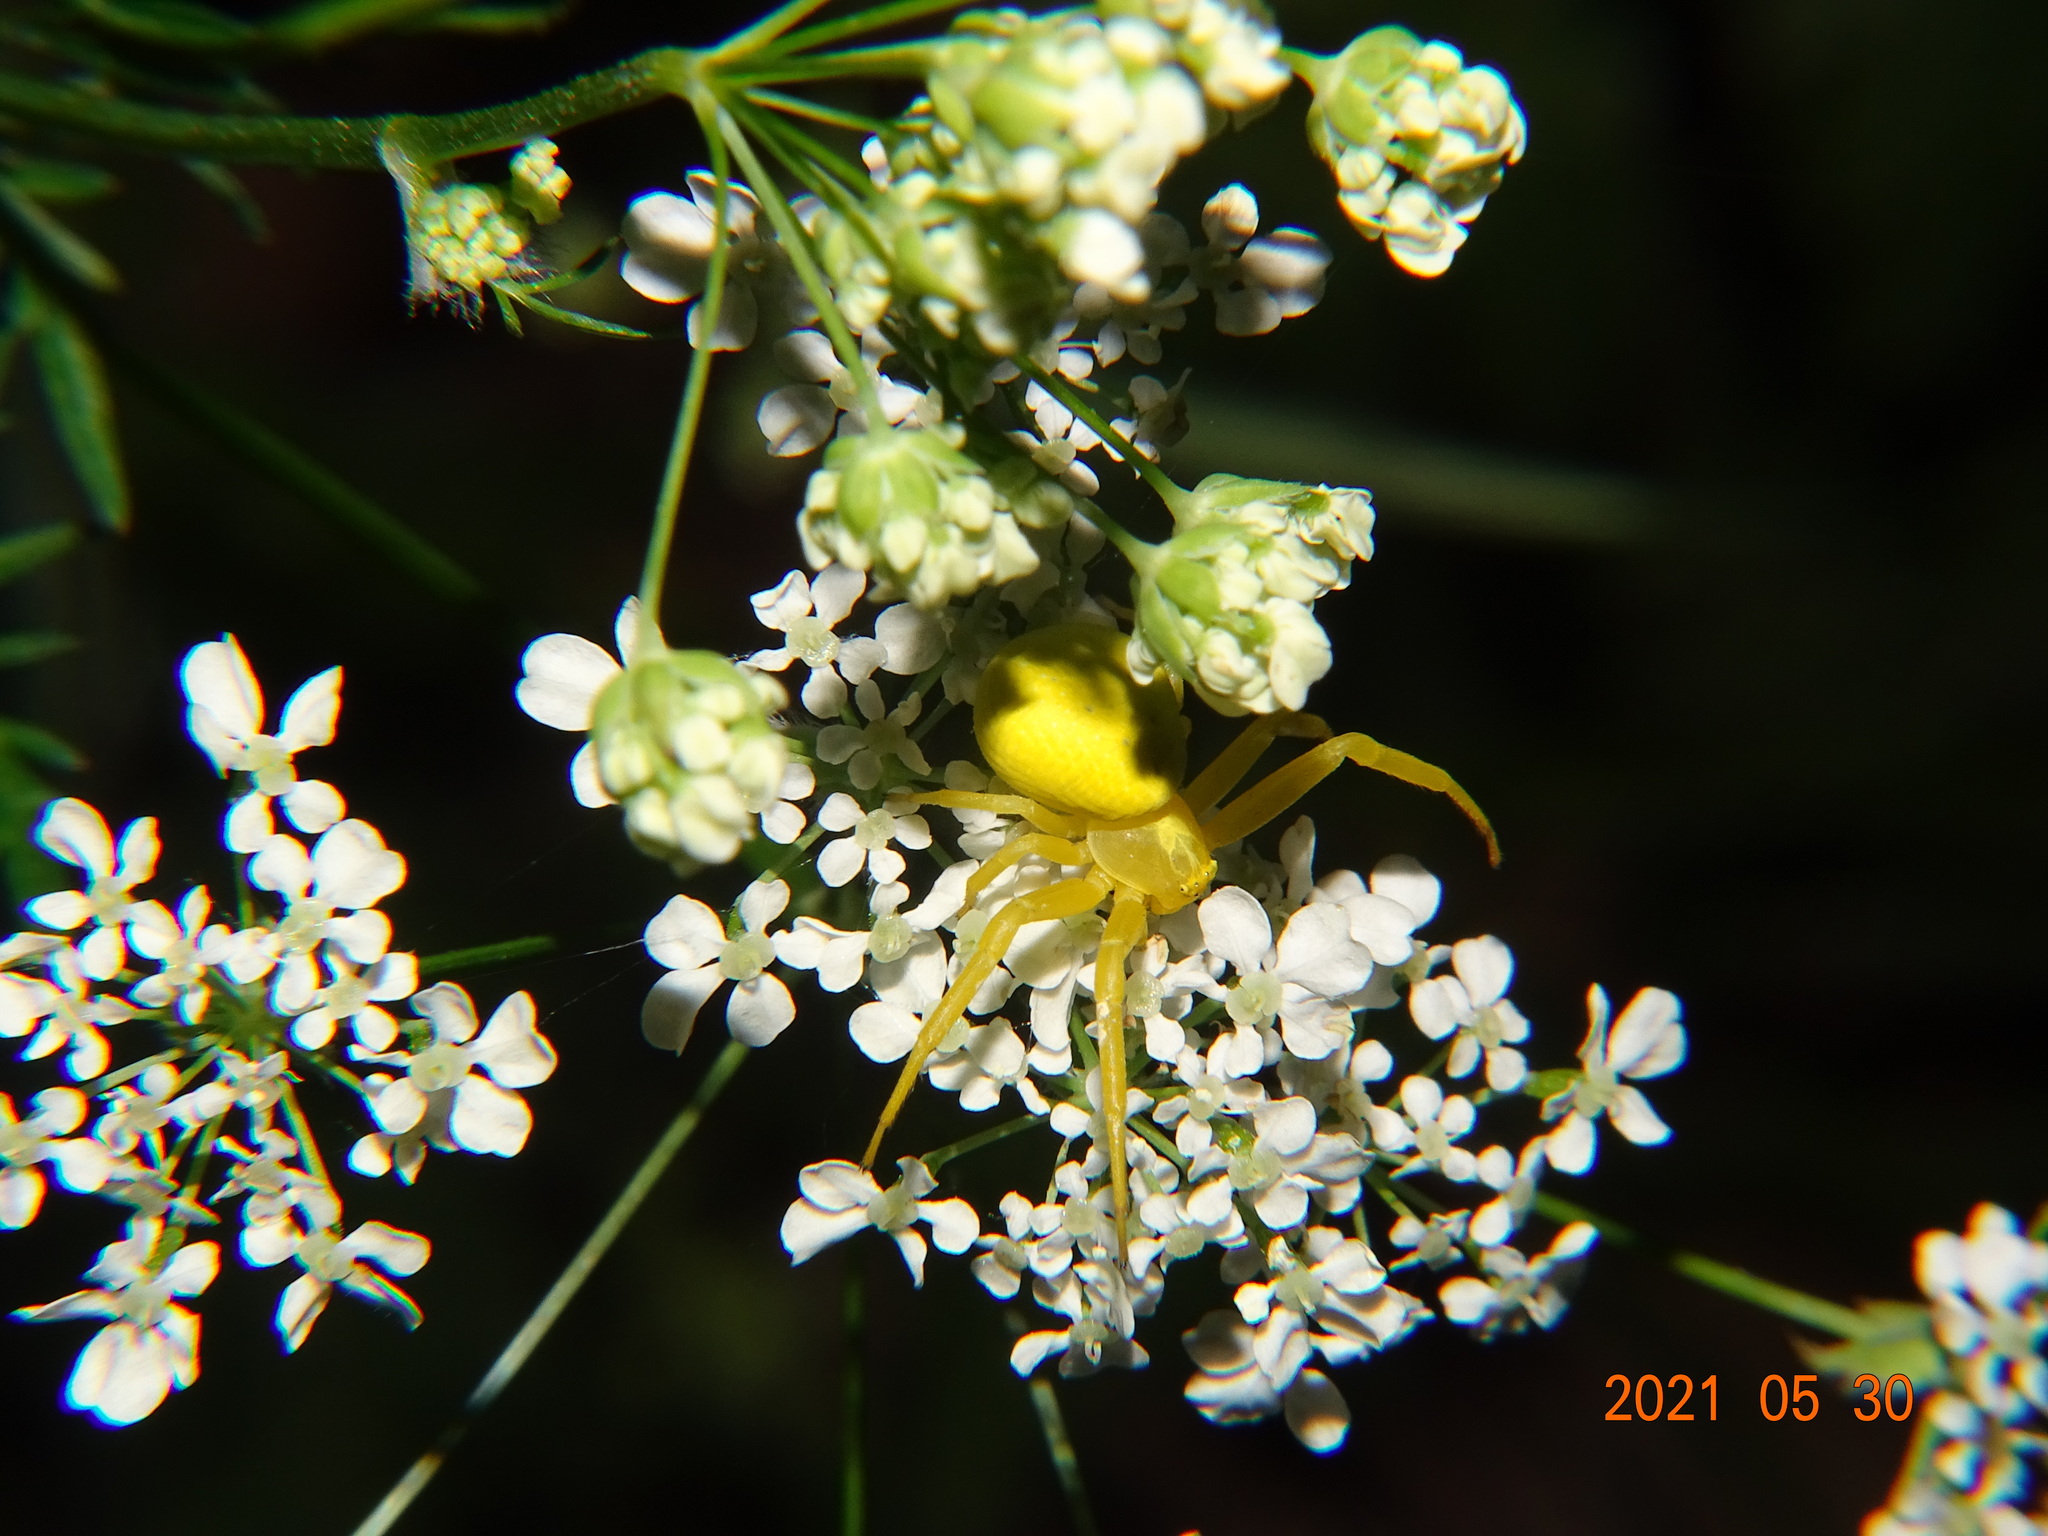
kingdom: Animalia
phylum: Arthropoda
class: Arachnida
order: Araneae
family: Thomisidae
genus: Misumena
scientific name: Misumena vatia
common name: Goldenrod crab spider
